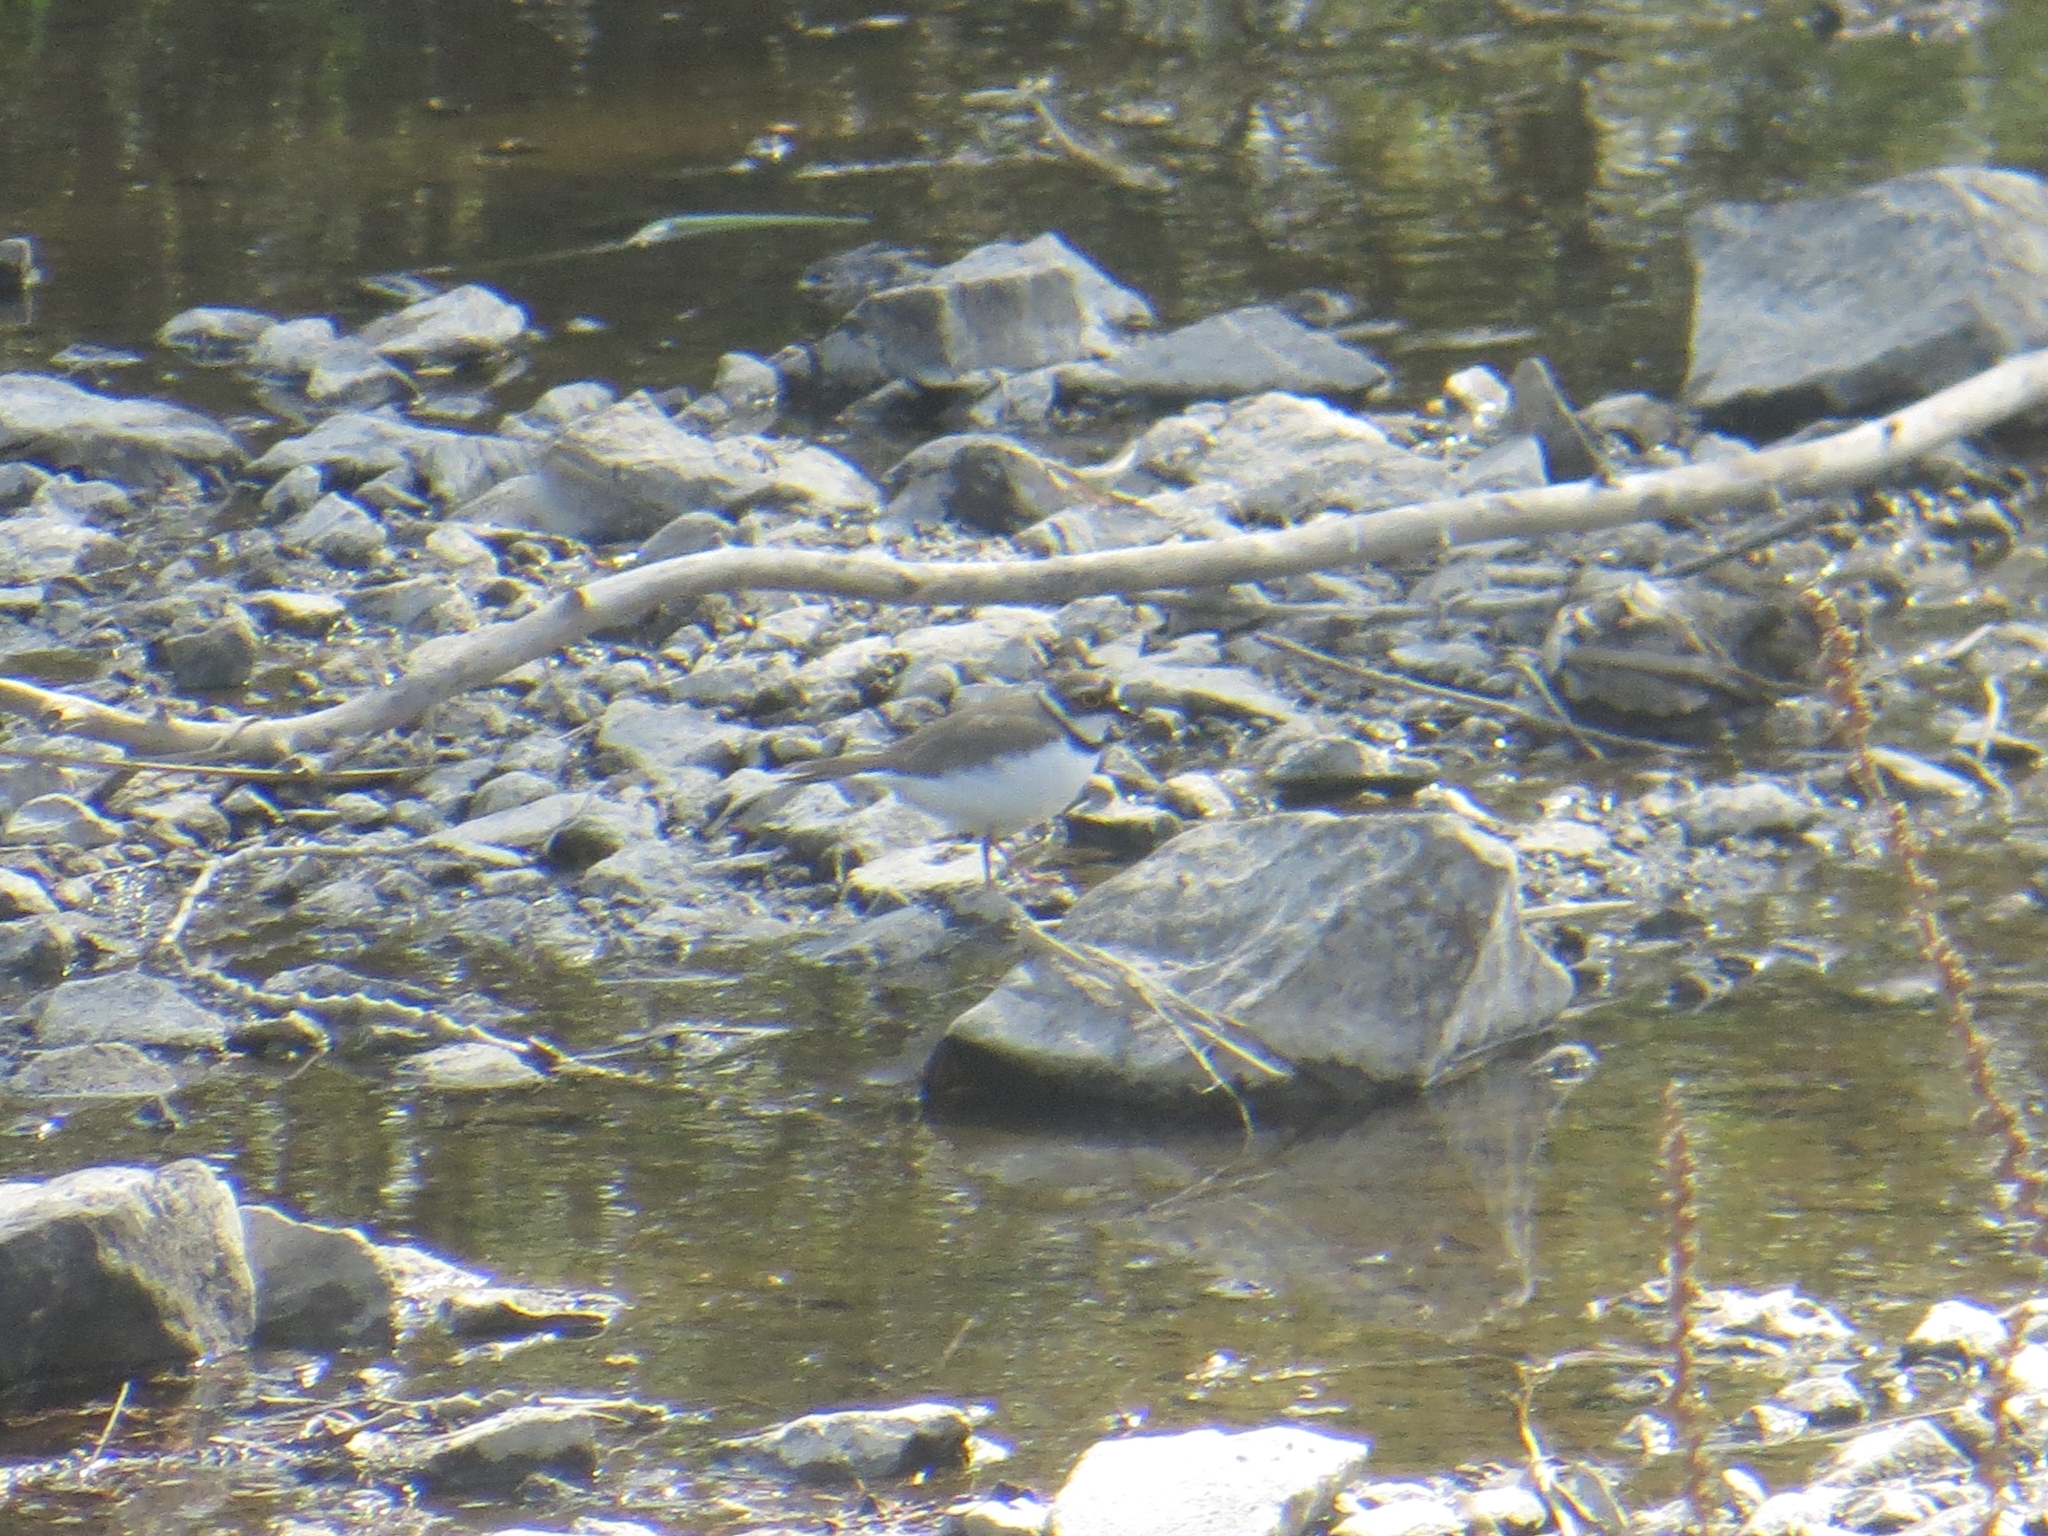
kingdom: Animalia
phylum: Chordata
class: Aves
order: Charadriiformes
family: Charadriidae
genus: Charadrius
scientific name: Charadrius dubius
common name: Little ringed plover
